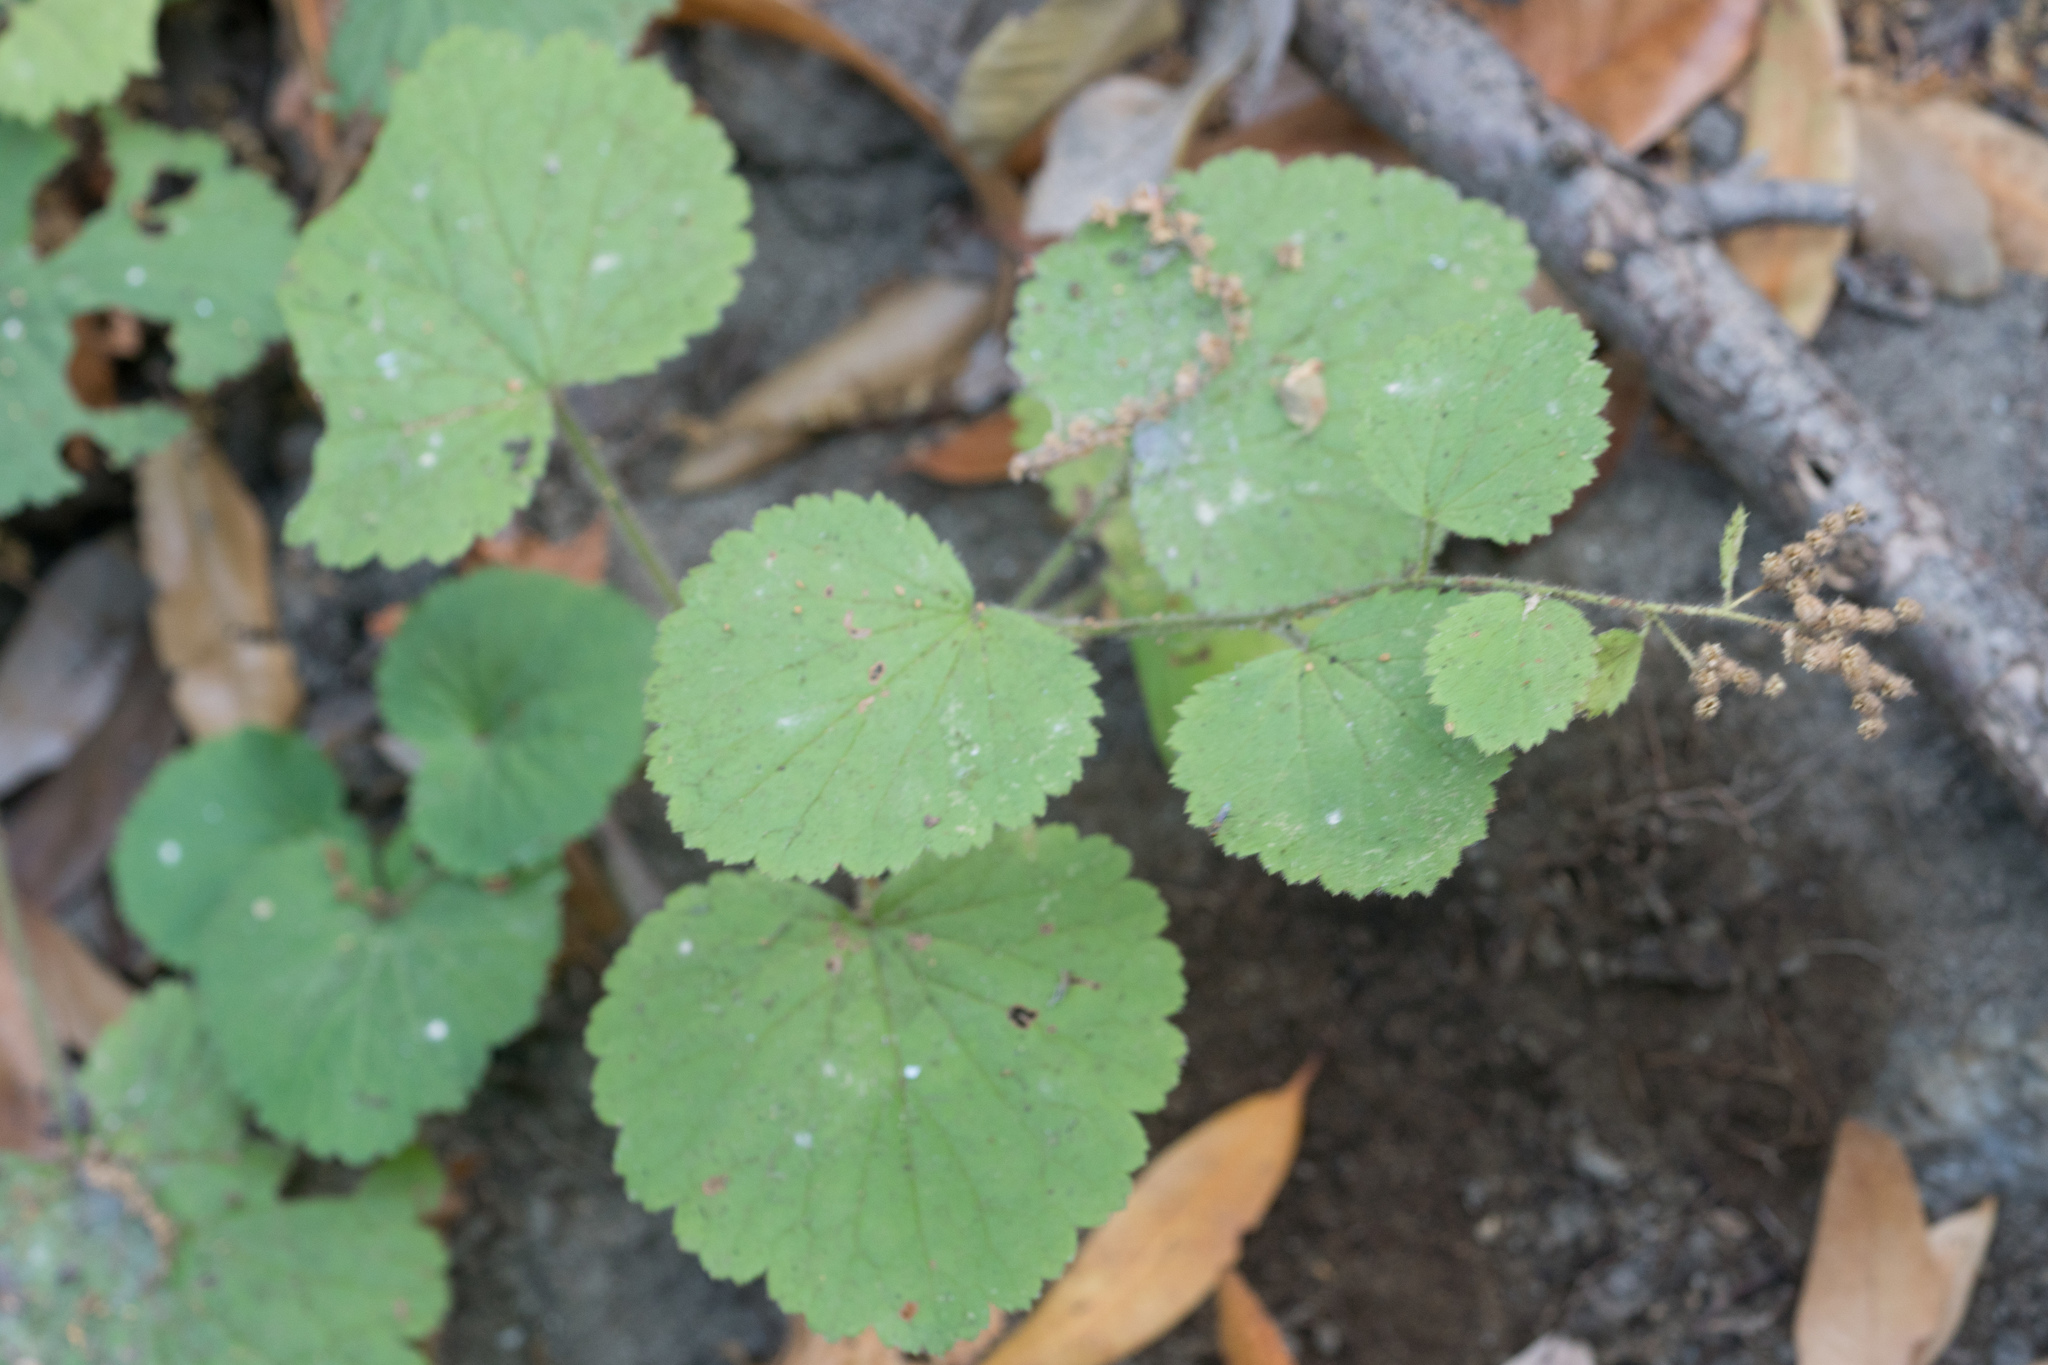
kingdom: Plantae
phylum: Tracheophyta
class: Magnoliopsida
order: Saxifragales
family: Saxifragaceae
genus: Boykinia
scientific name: Boykinia rotundifolia
